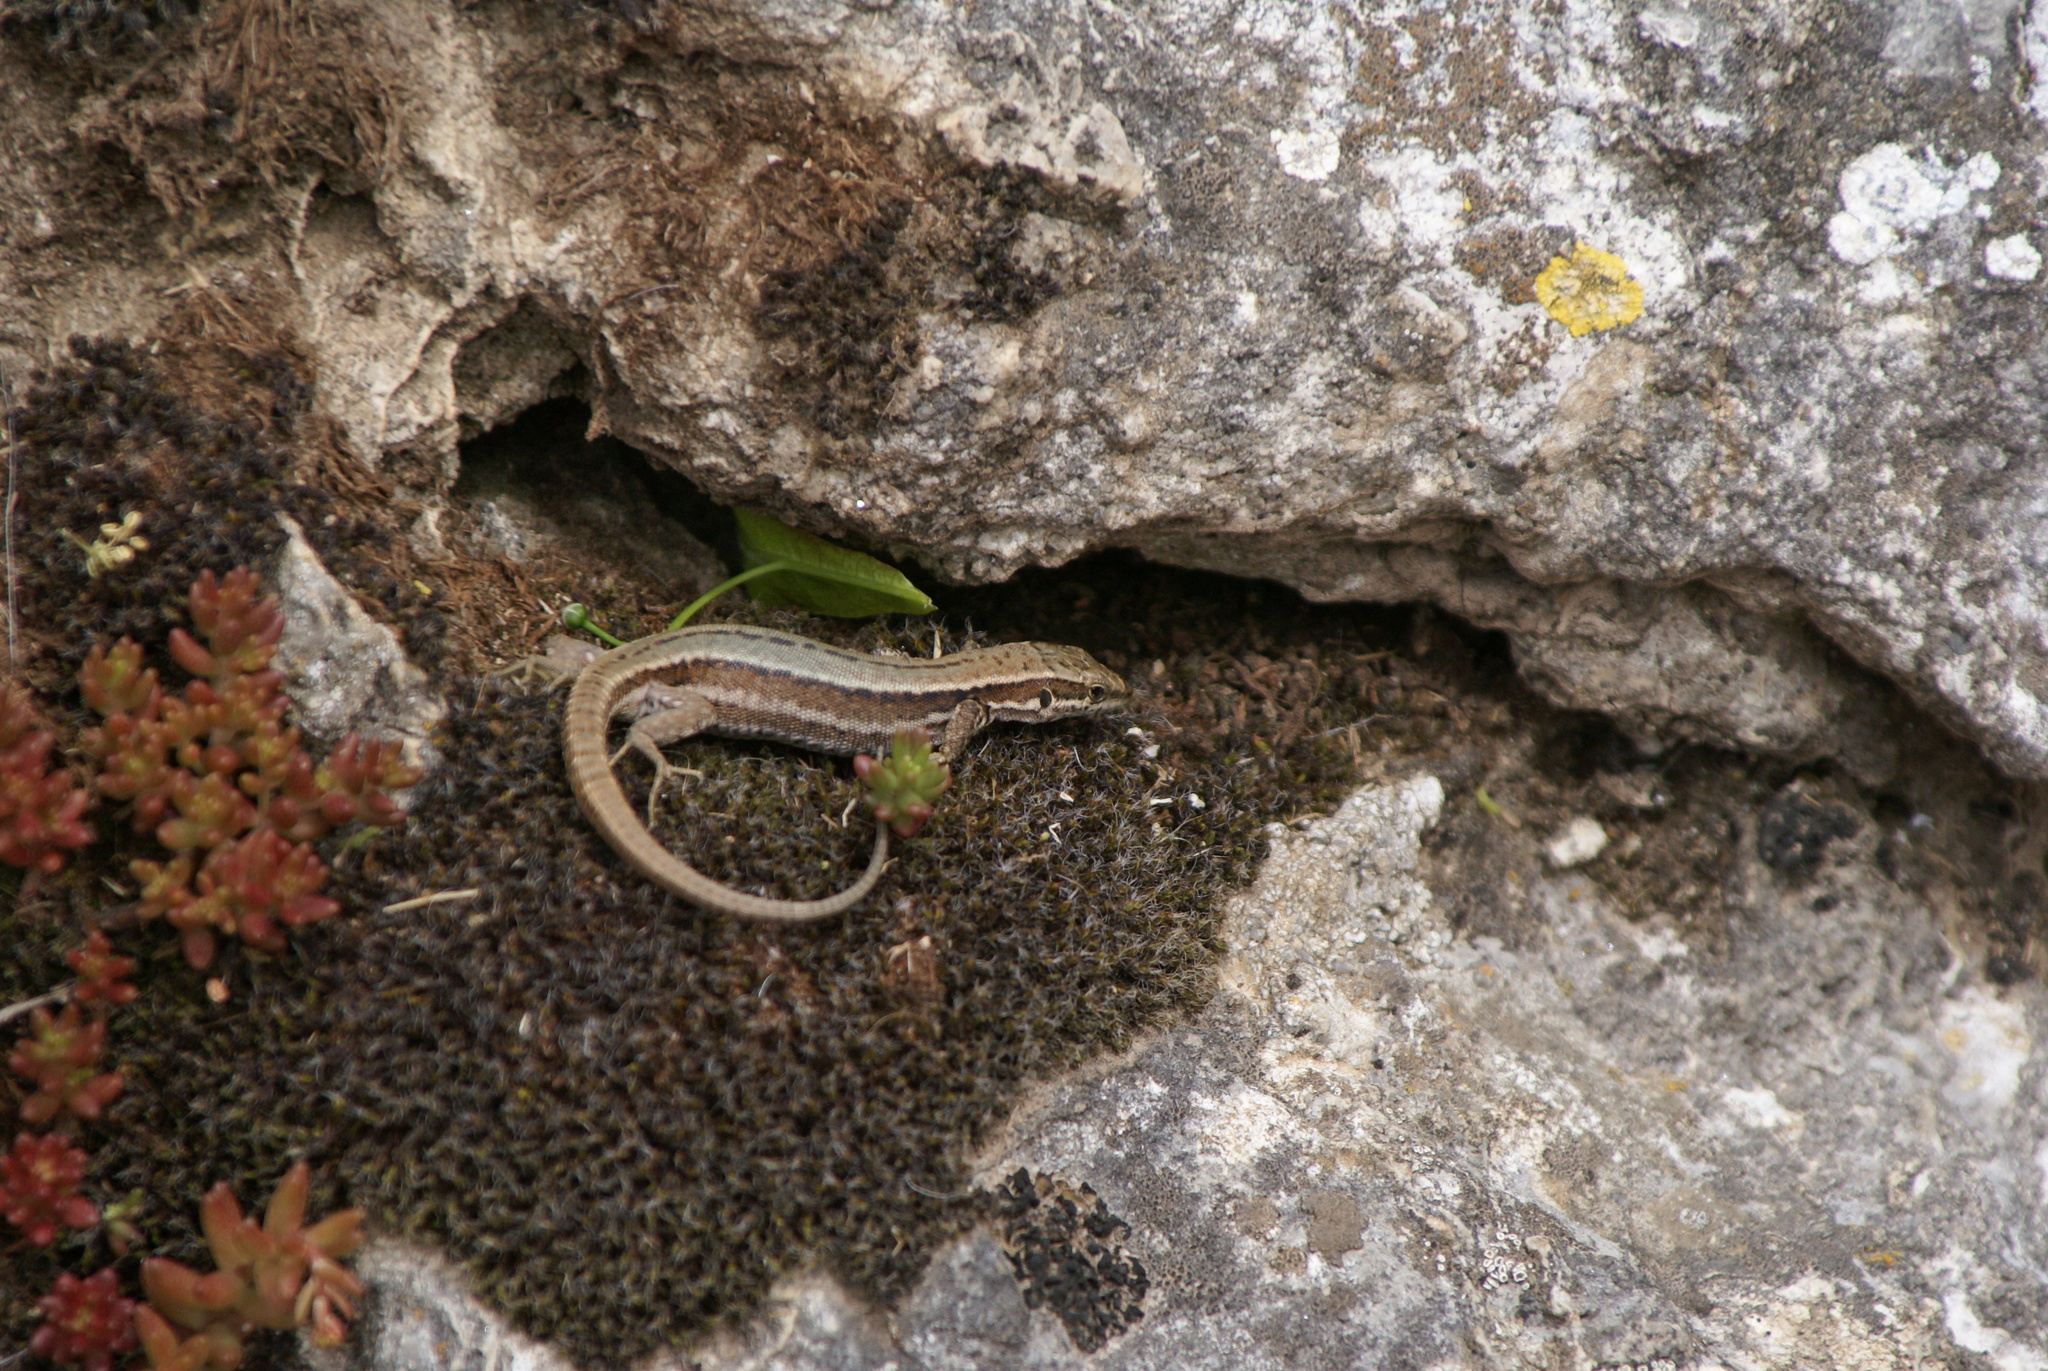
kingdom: Animalia
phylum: Chordata
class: Squamata
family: Lacertidae
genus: Podarcis
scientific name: Podarcis muralis
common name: Common wall lizard
